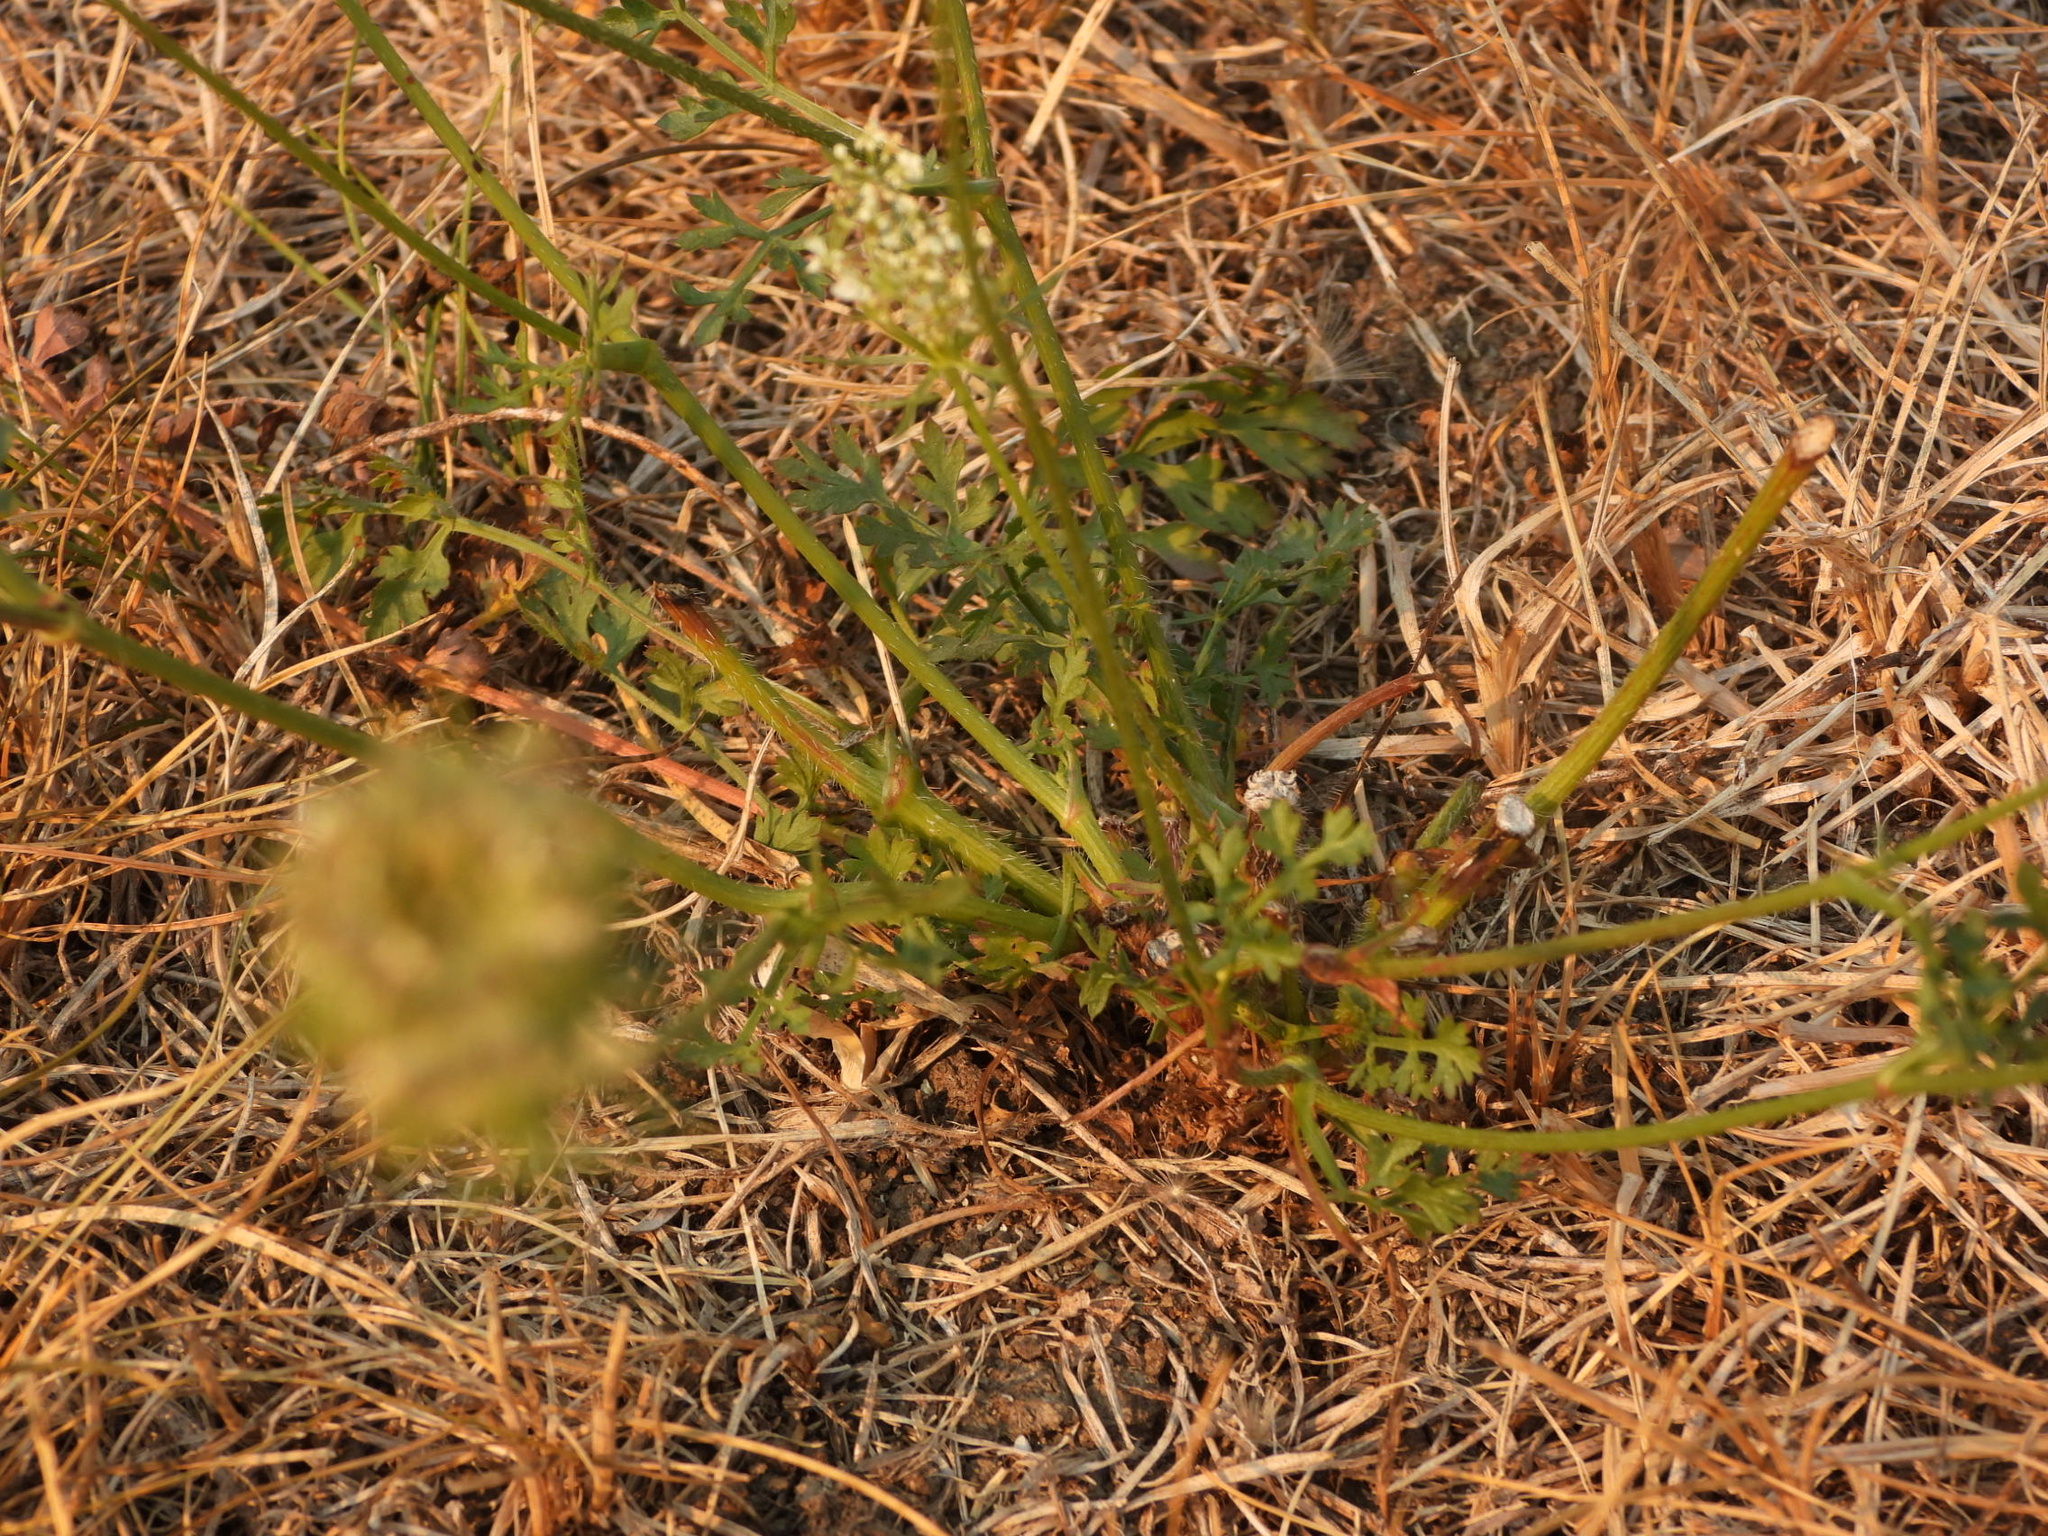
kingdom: Plantae
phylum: Tracheophyta
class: Magnoliopsida
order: Apiales
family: Apiaceae
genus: Daucus
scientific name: Daucus carota
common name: Wild carrot
